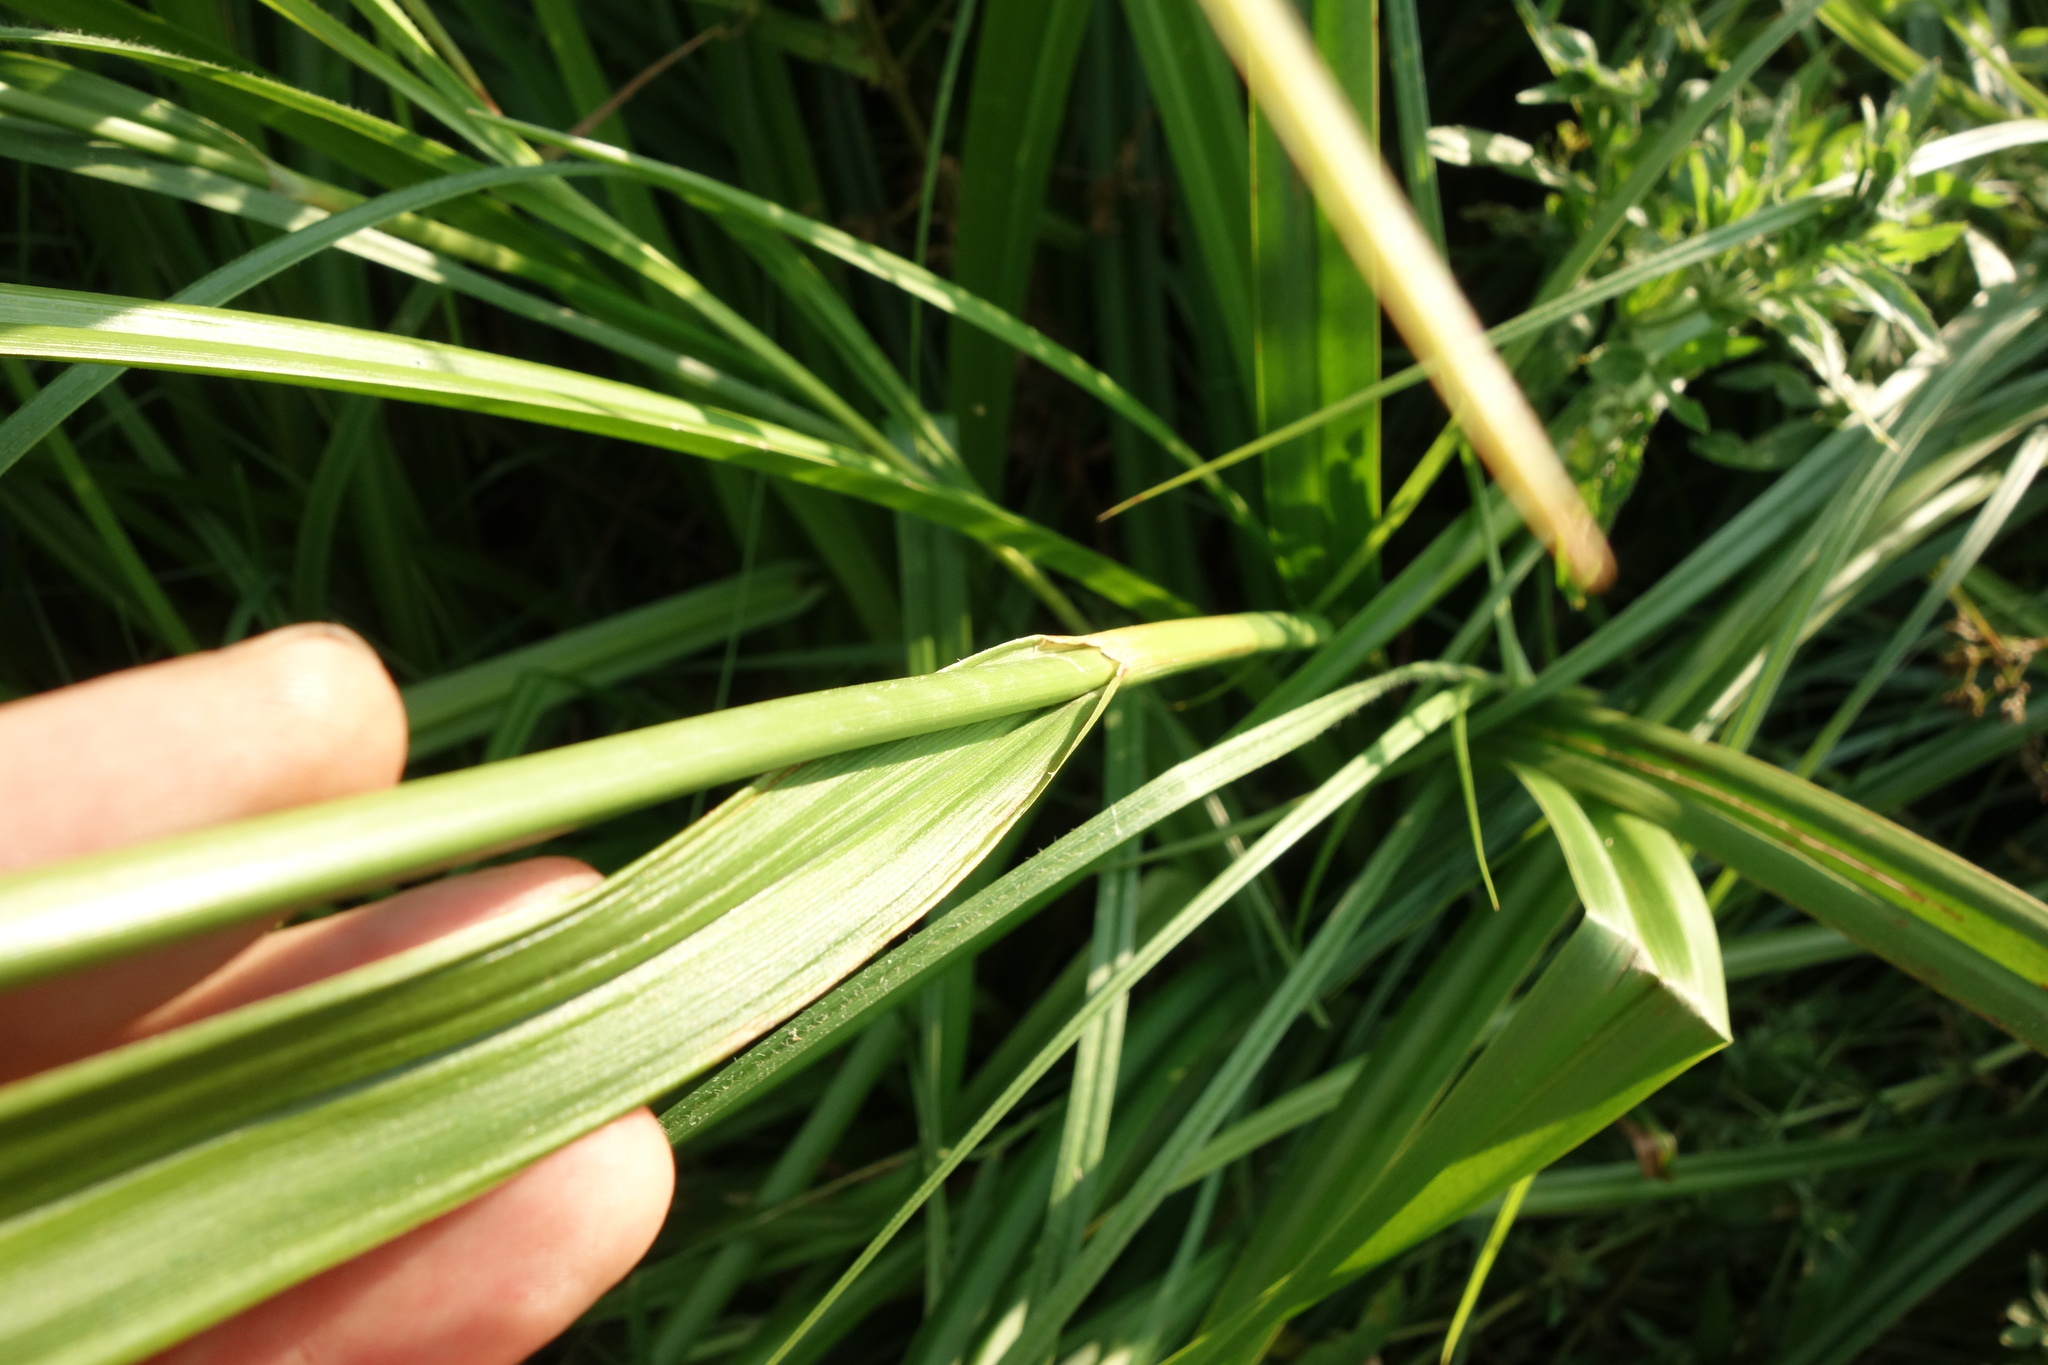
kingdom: Plantae
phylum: Tracheophyta
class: Liliopsida
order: Poales
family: Cyperaceae
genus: Scirpus
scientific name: Scirpus sylvaticus
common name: Wood club-rush
